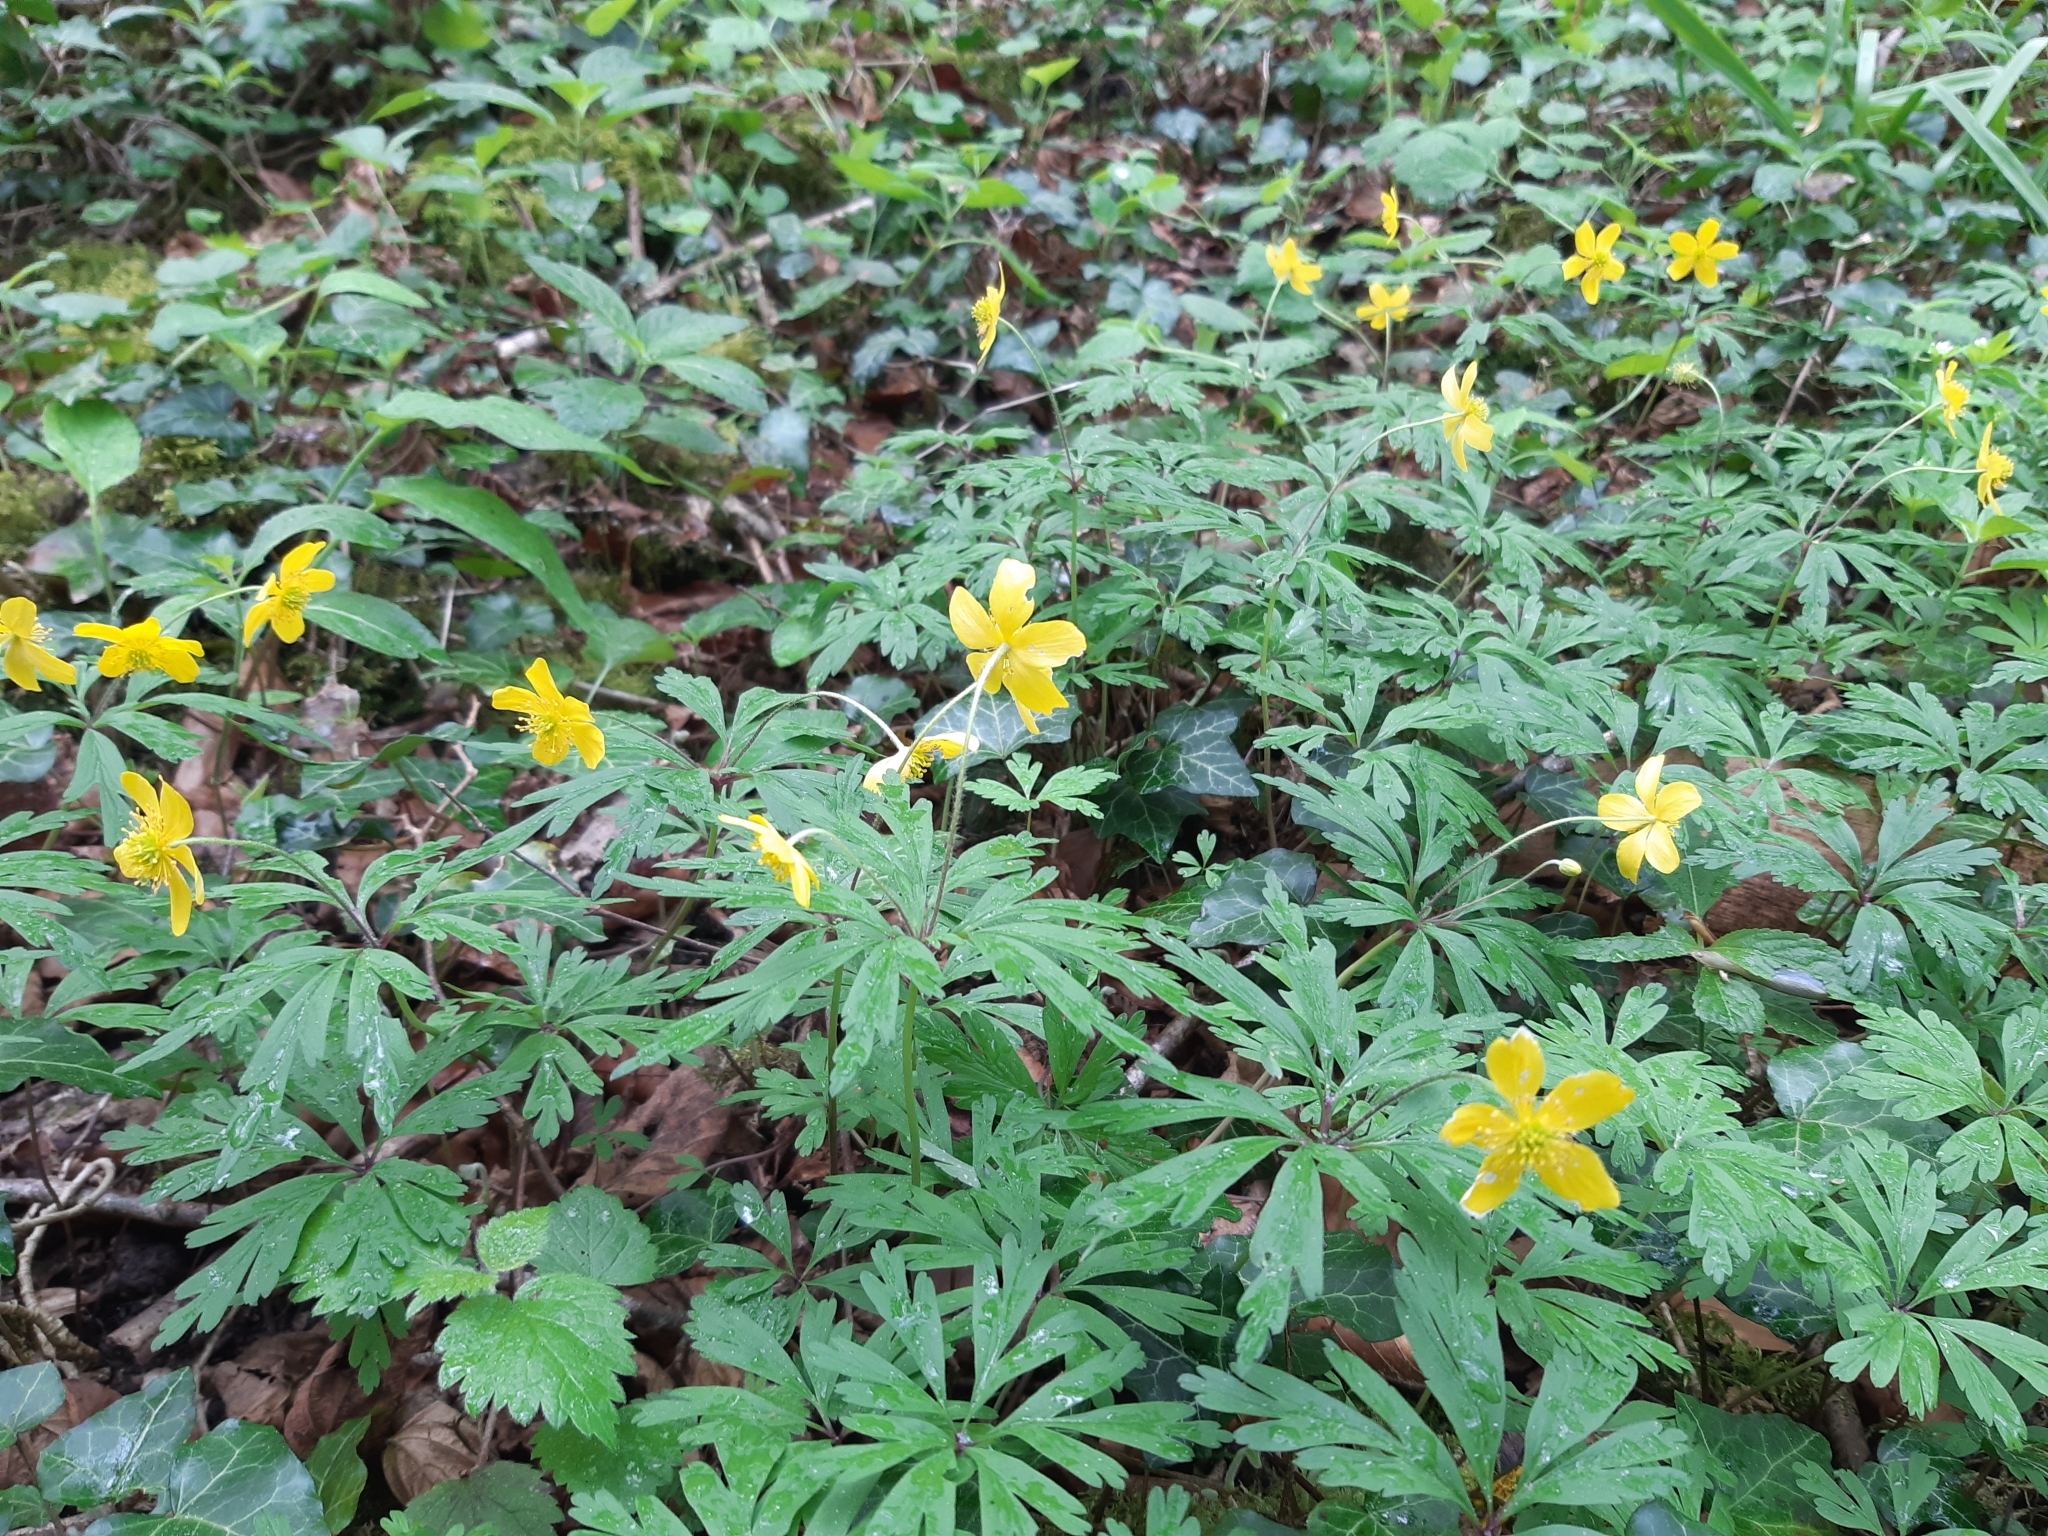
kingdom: Plantae
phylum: Tracheophyta
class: Magnoliopsida
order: Ranunculales
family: Ranunculaceae
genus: Anemone
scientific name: Anemone ranunculoides
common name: Yellow anemone
